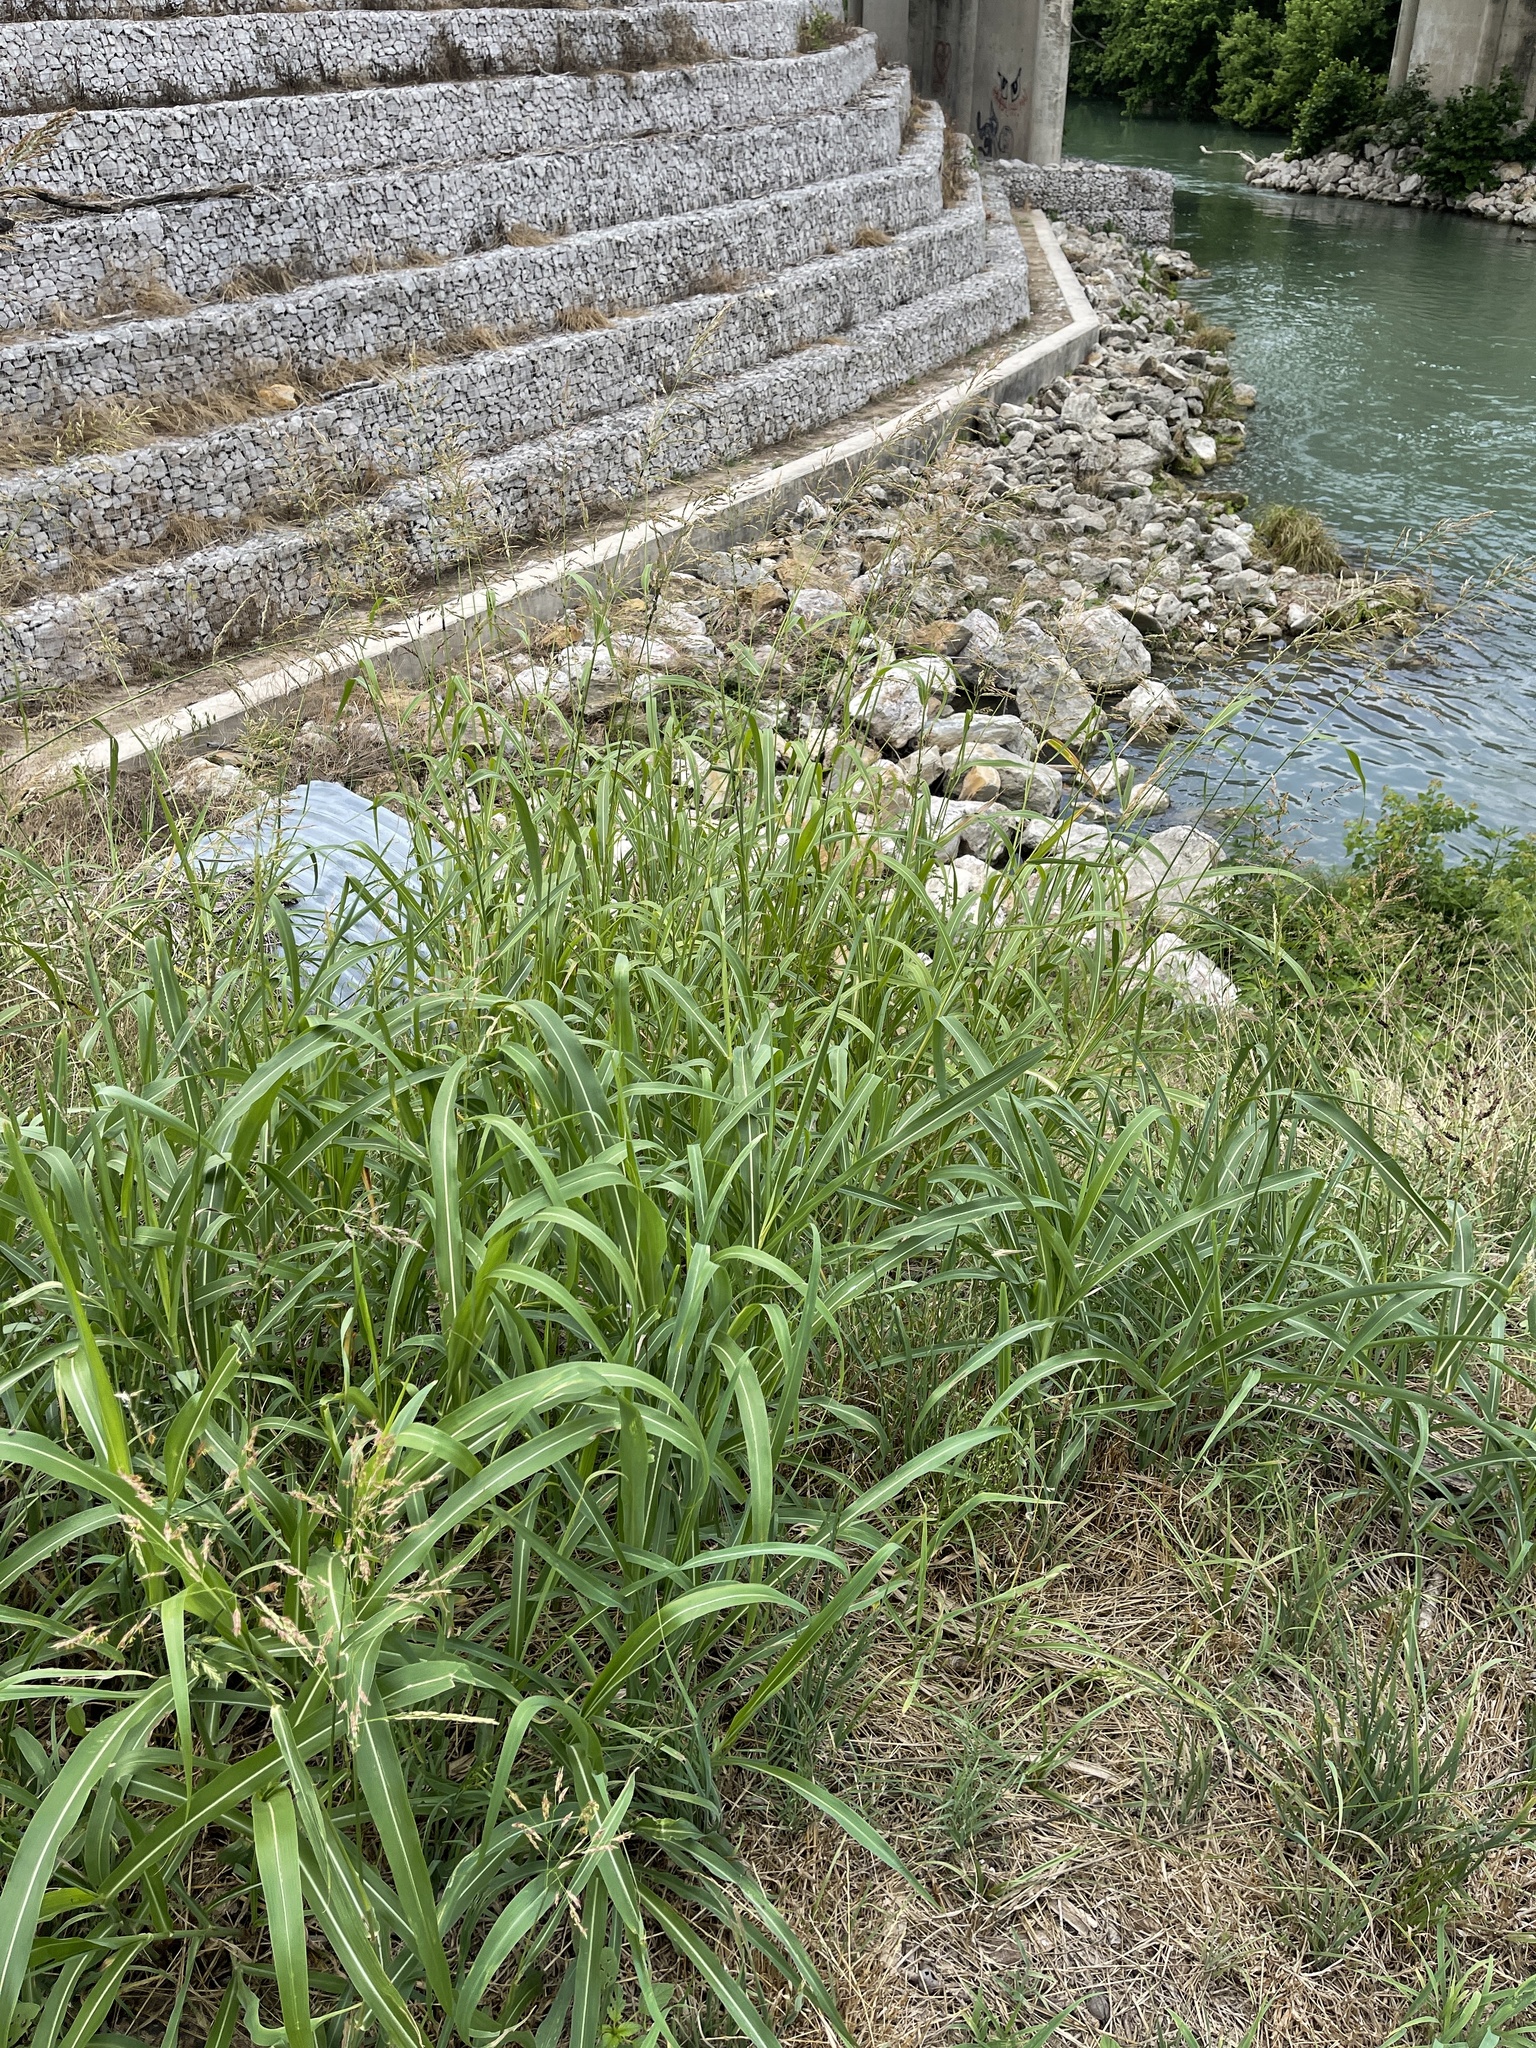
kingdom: Plantae
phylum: Tracheophyta
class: Liliopsida
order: Poales
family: Poaceae
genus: Sorghum
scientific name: Sorghum halepense
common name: Johnson-grass
